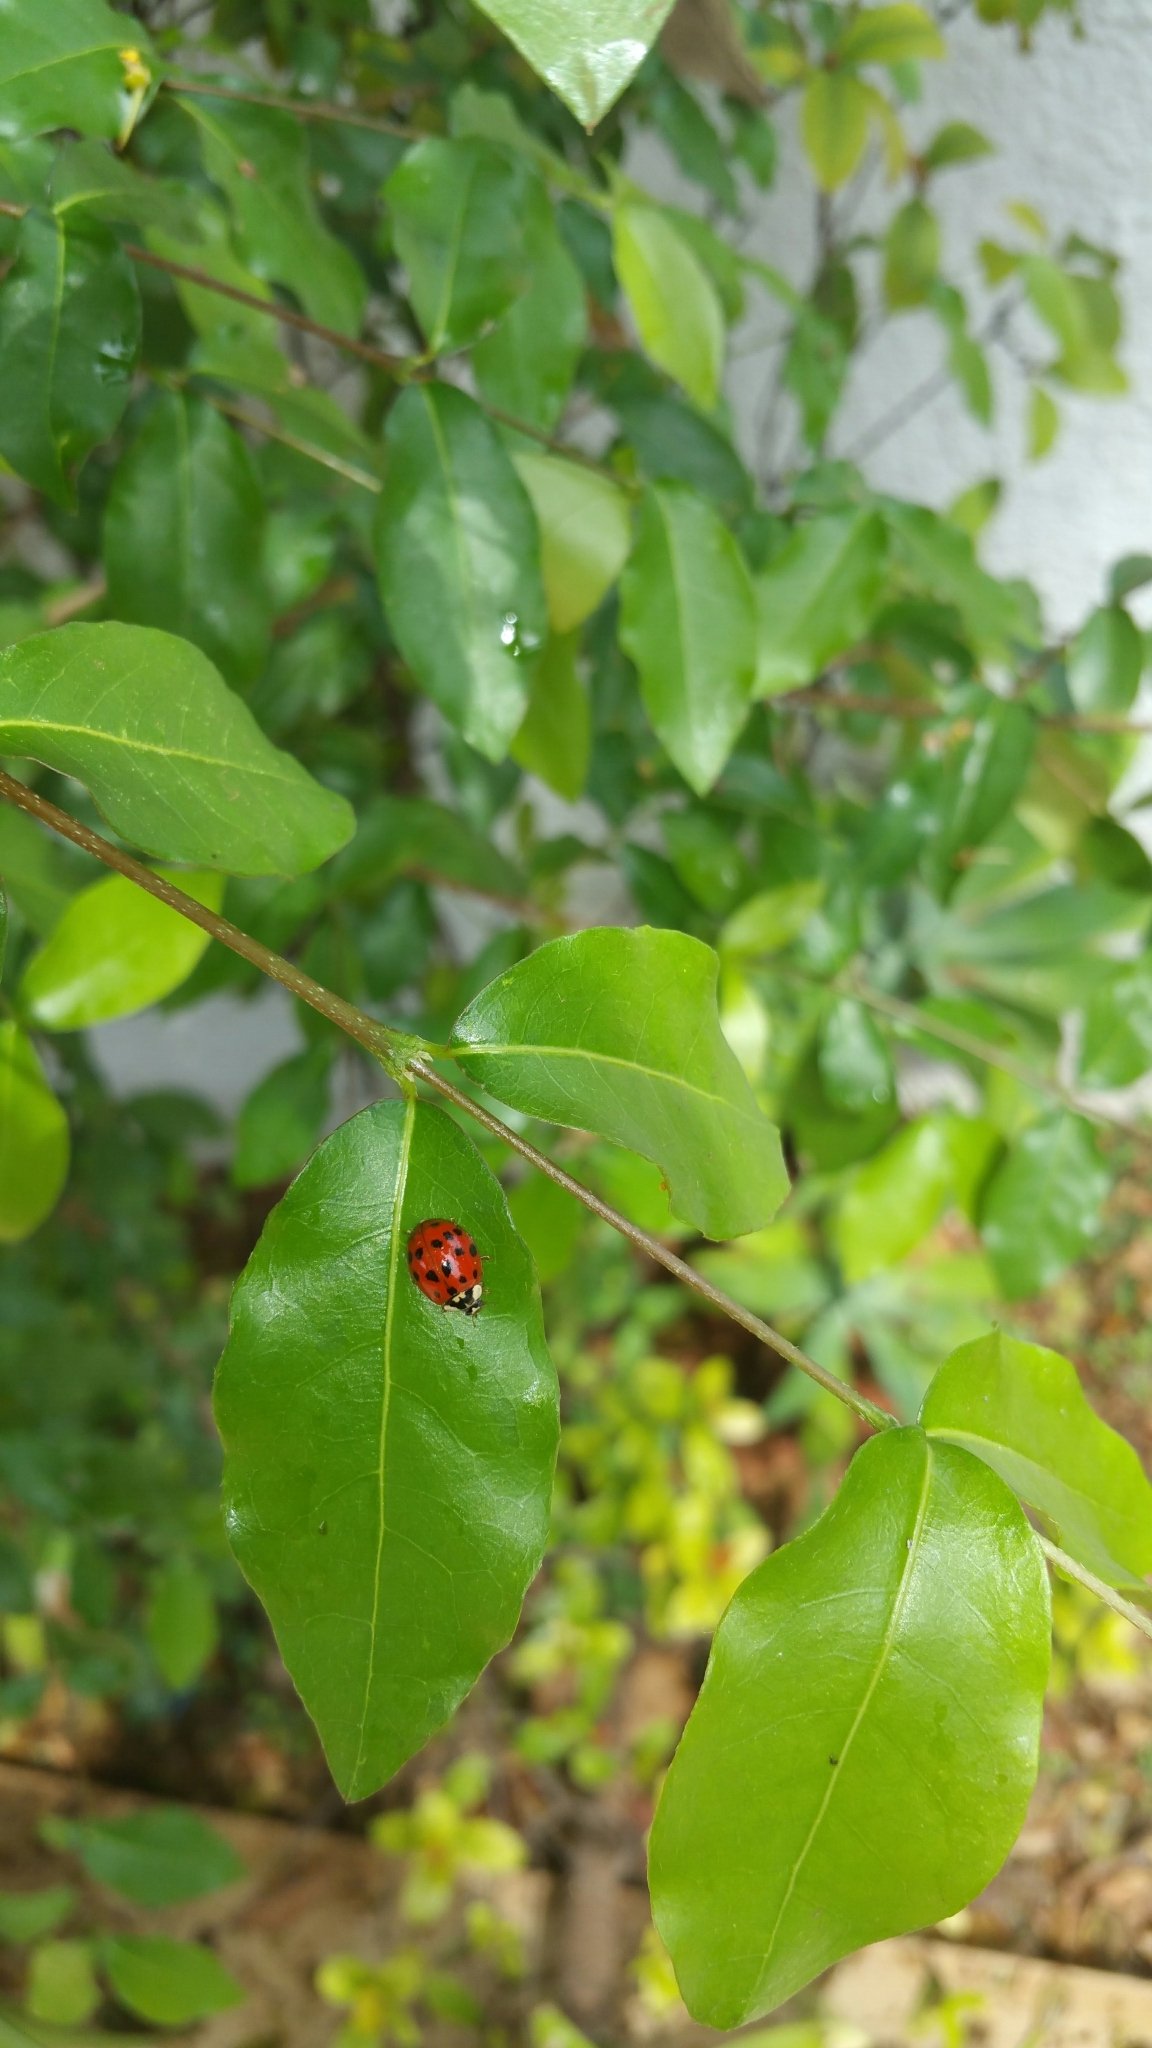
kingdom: Animalia
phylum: Arthropoda
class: Insecta
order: Coleoptera
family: Coccinellidae
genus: Harmonia
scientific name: Harmonia axyridis
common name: Harlequin ladybird
